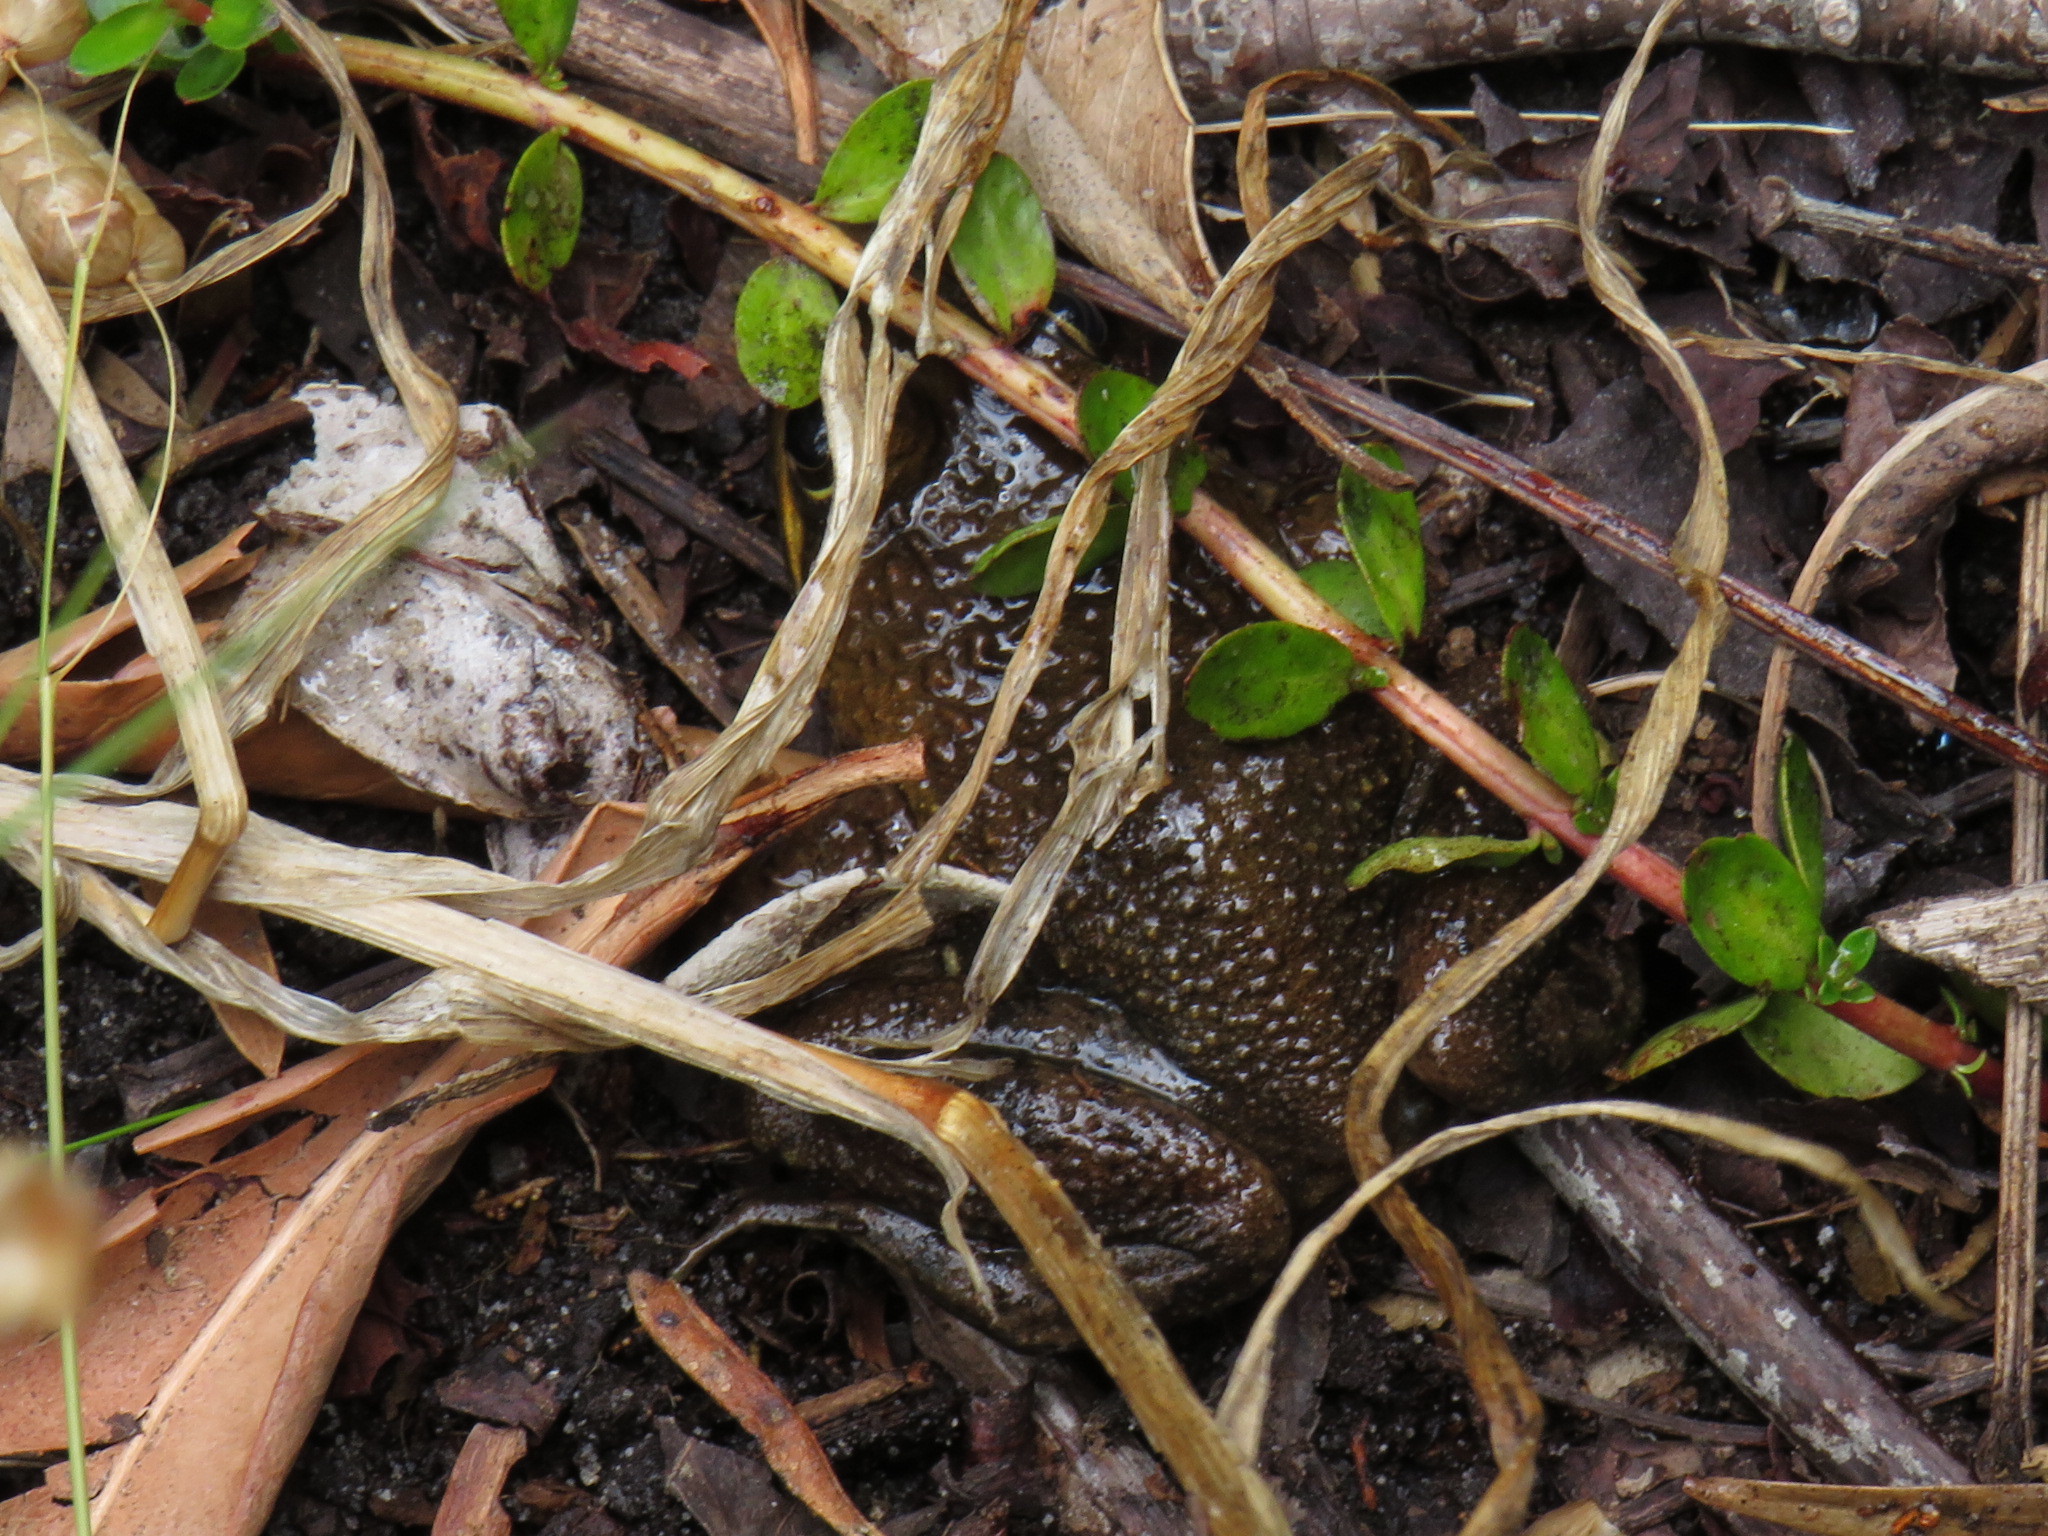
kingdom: Animalia
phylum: Chordata
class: Amphibia
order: Anura
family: Pyxicephalidae
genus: Amietia
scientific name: Amietia fuscigula
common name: Cape rana
